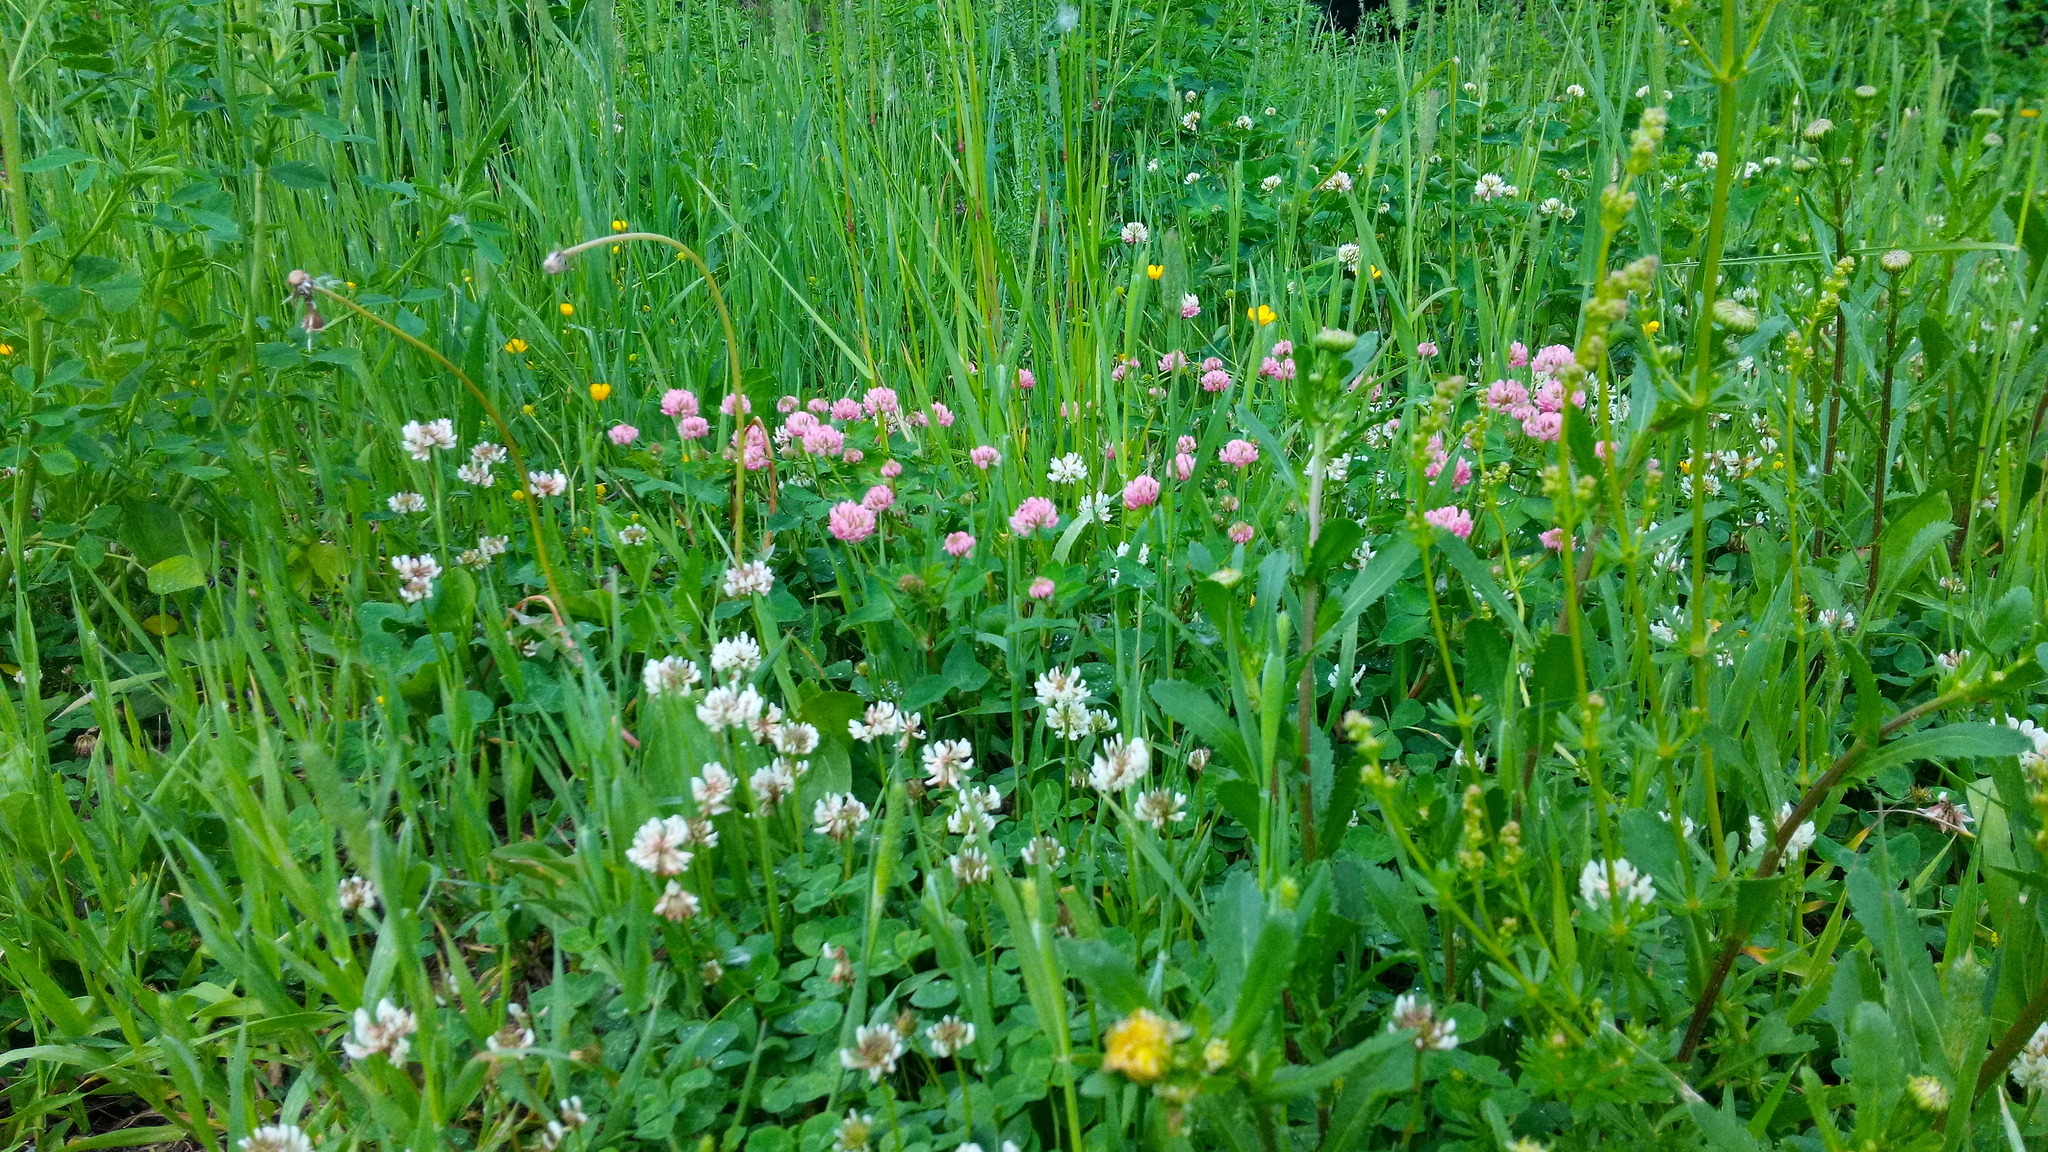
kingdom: Plantae
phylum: Tracheophyta
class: Magnoliopsida
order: Fabales
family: Fabaceae
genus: Trifolium
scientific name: Trifolium hybridum
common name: Alsike clover
